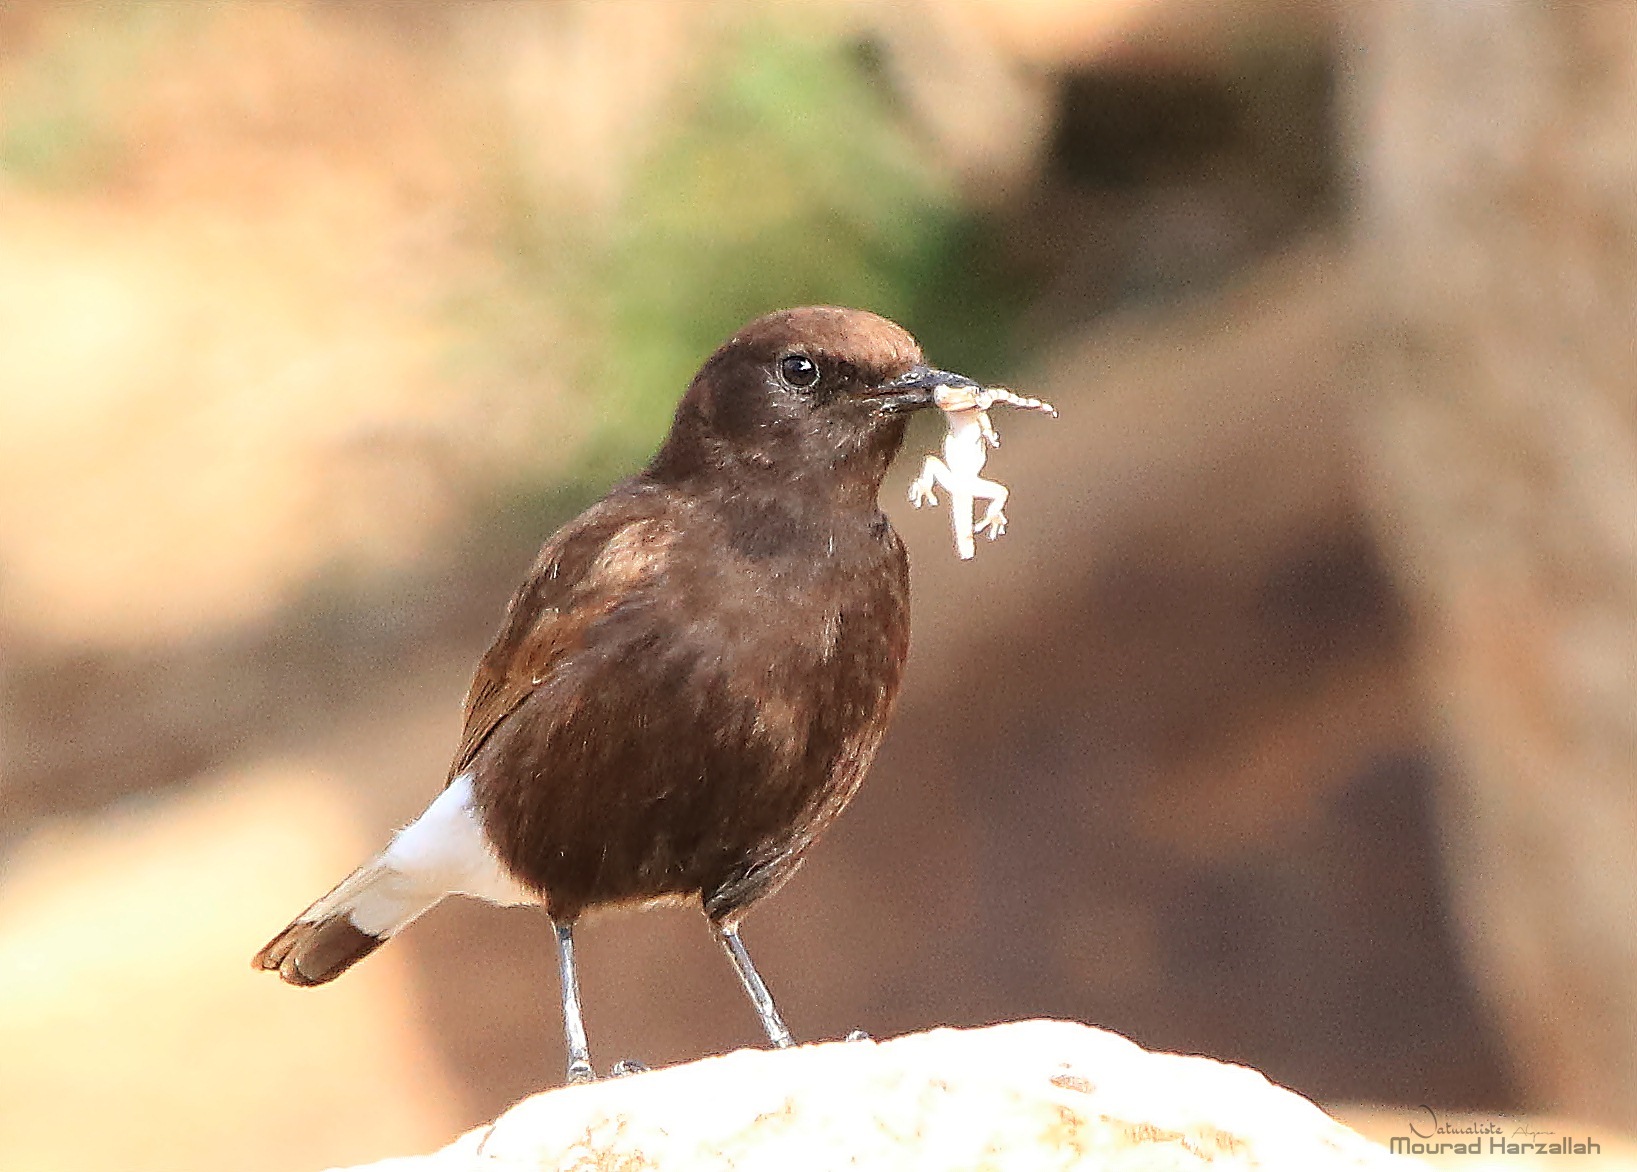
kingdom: Animalia
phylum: Chordata
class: Aves
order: Passeriformes
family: Muscicapidae
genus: Oenanthe
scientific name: Oenanthe leucura
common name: Black wheatear
